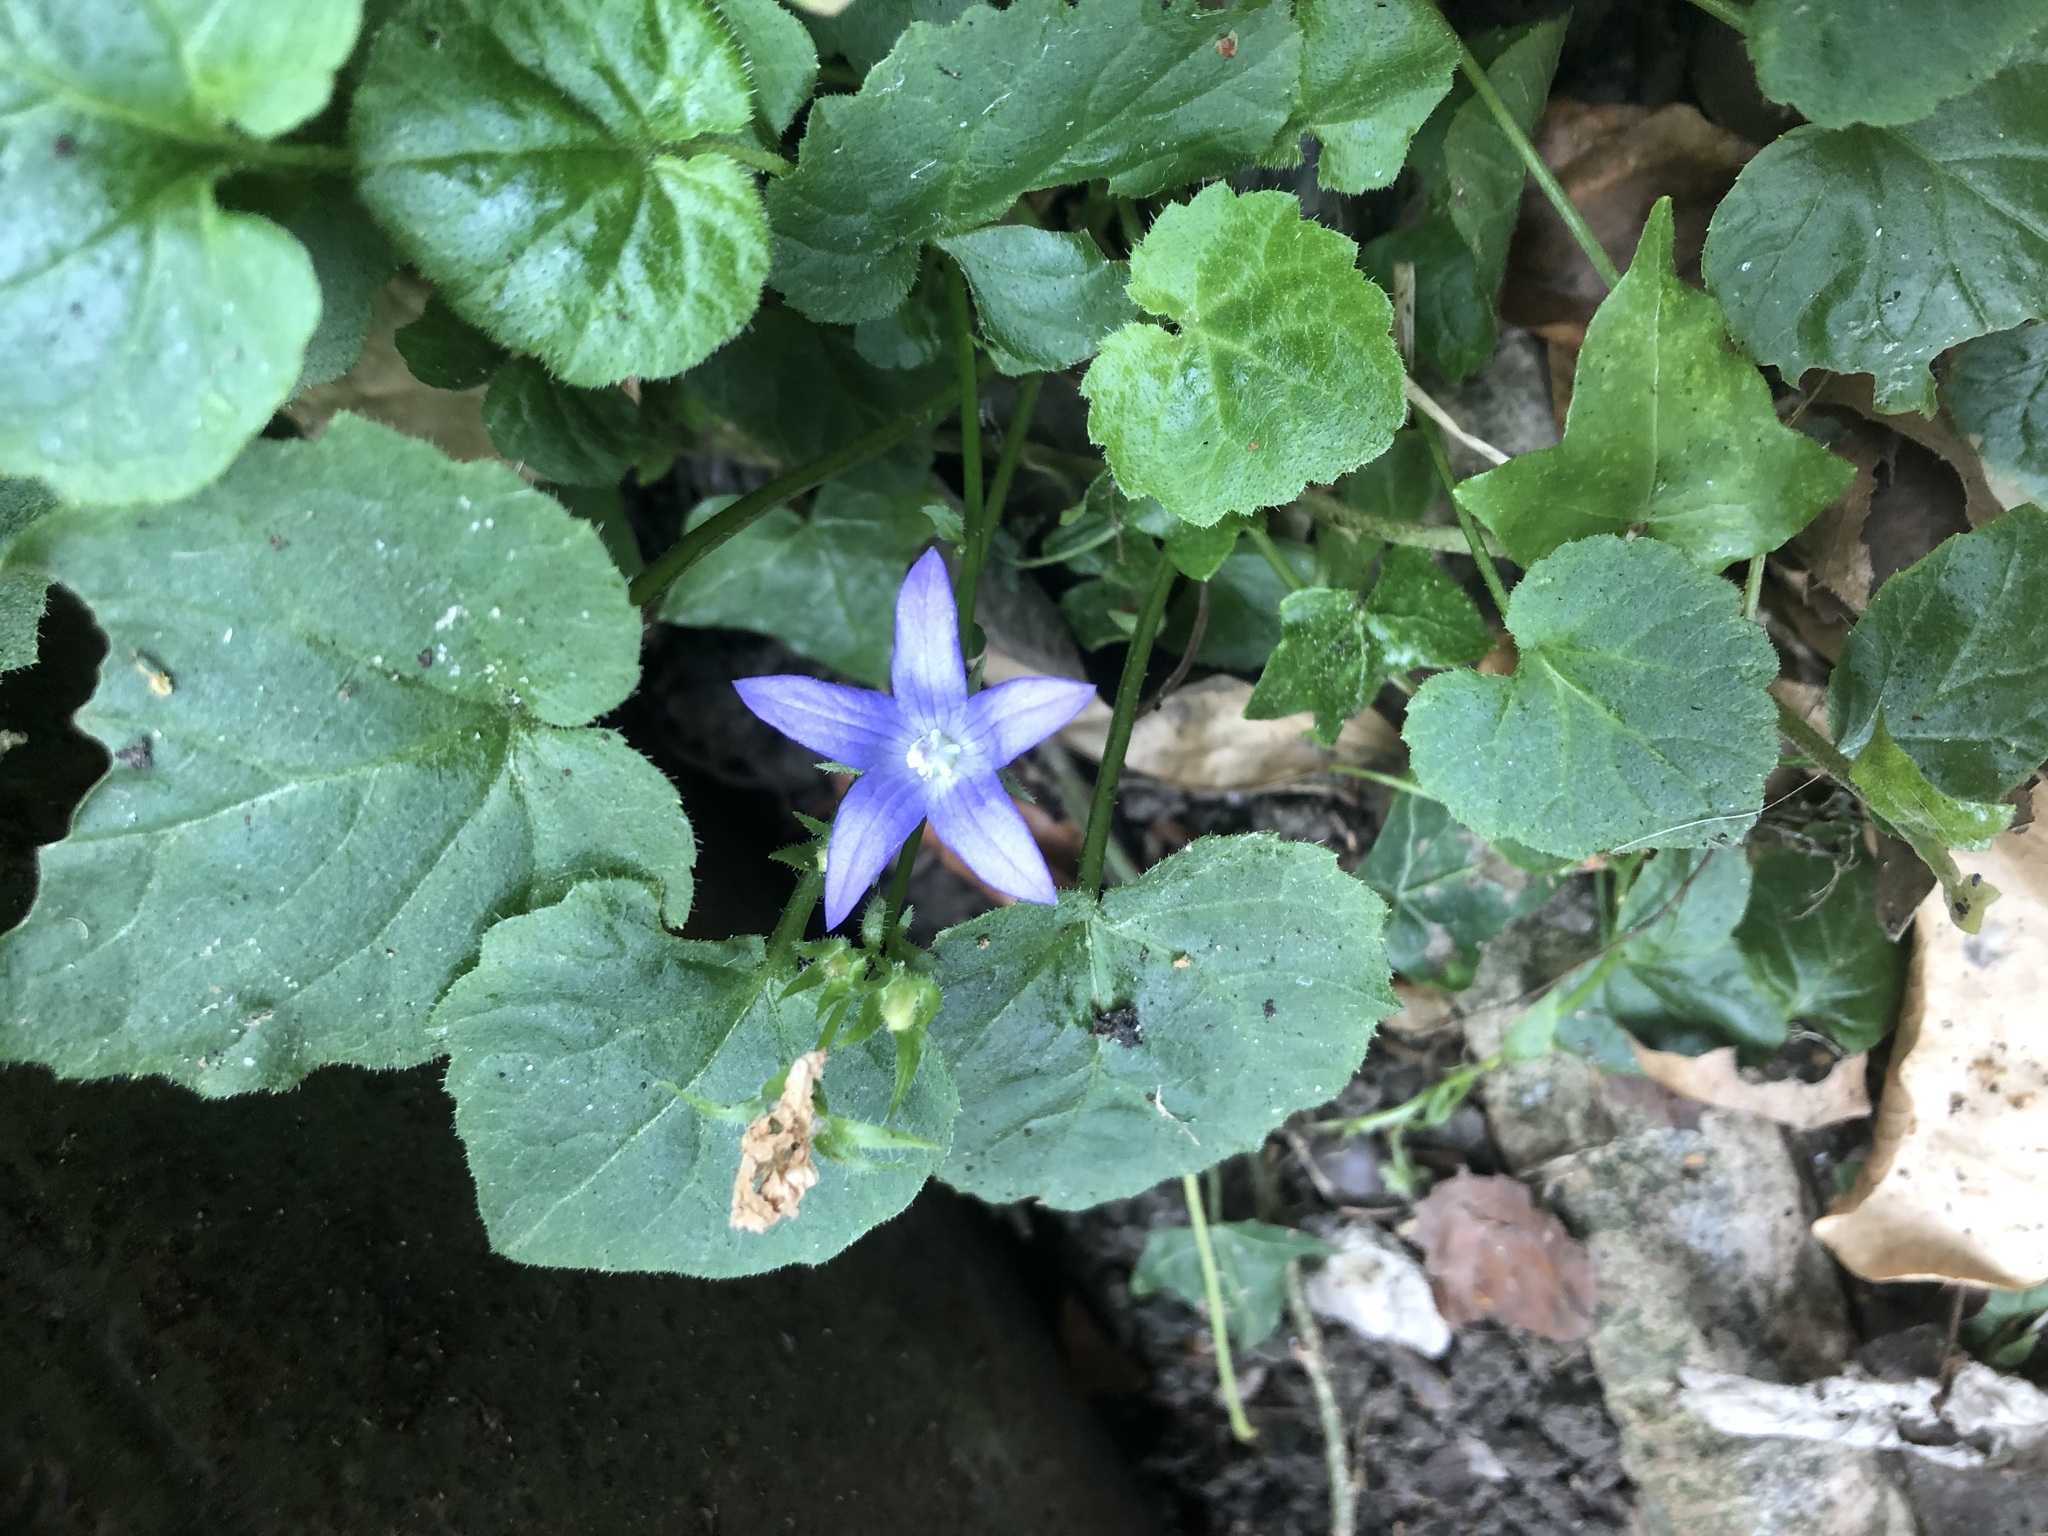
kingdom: Plantae
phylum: Tracheophyta
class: Magnoliopsida
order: Asterales
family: Campanulaceae
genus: Campanula
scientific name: Campanula poscharskyana
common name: Trailing bellflower
